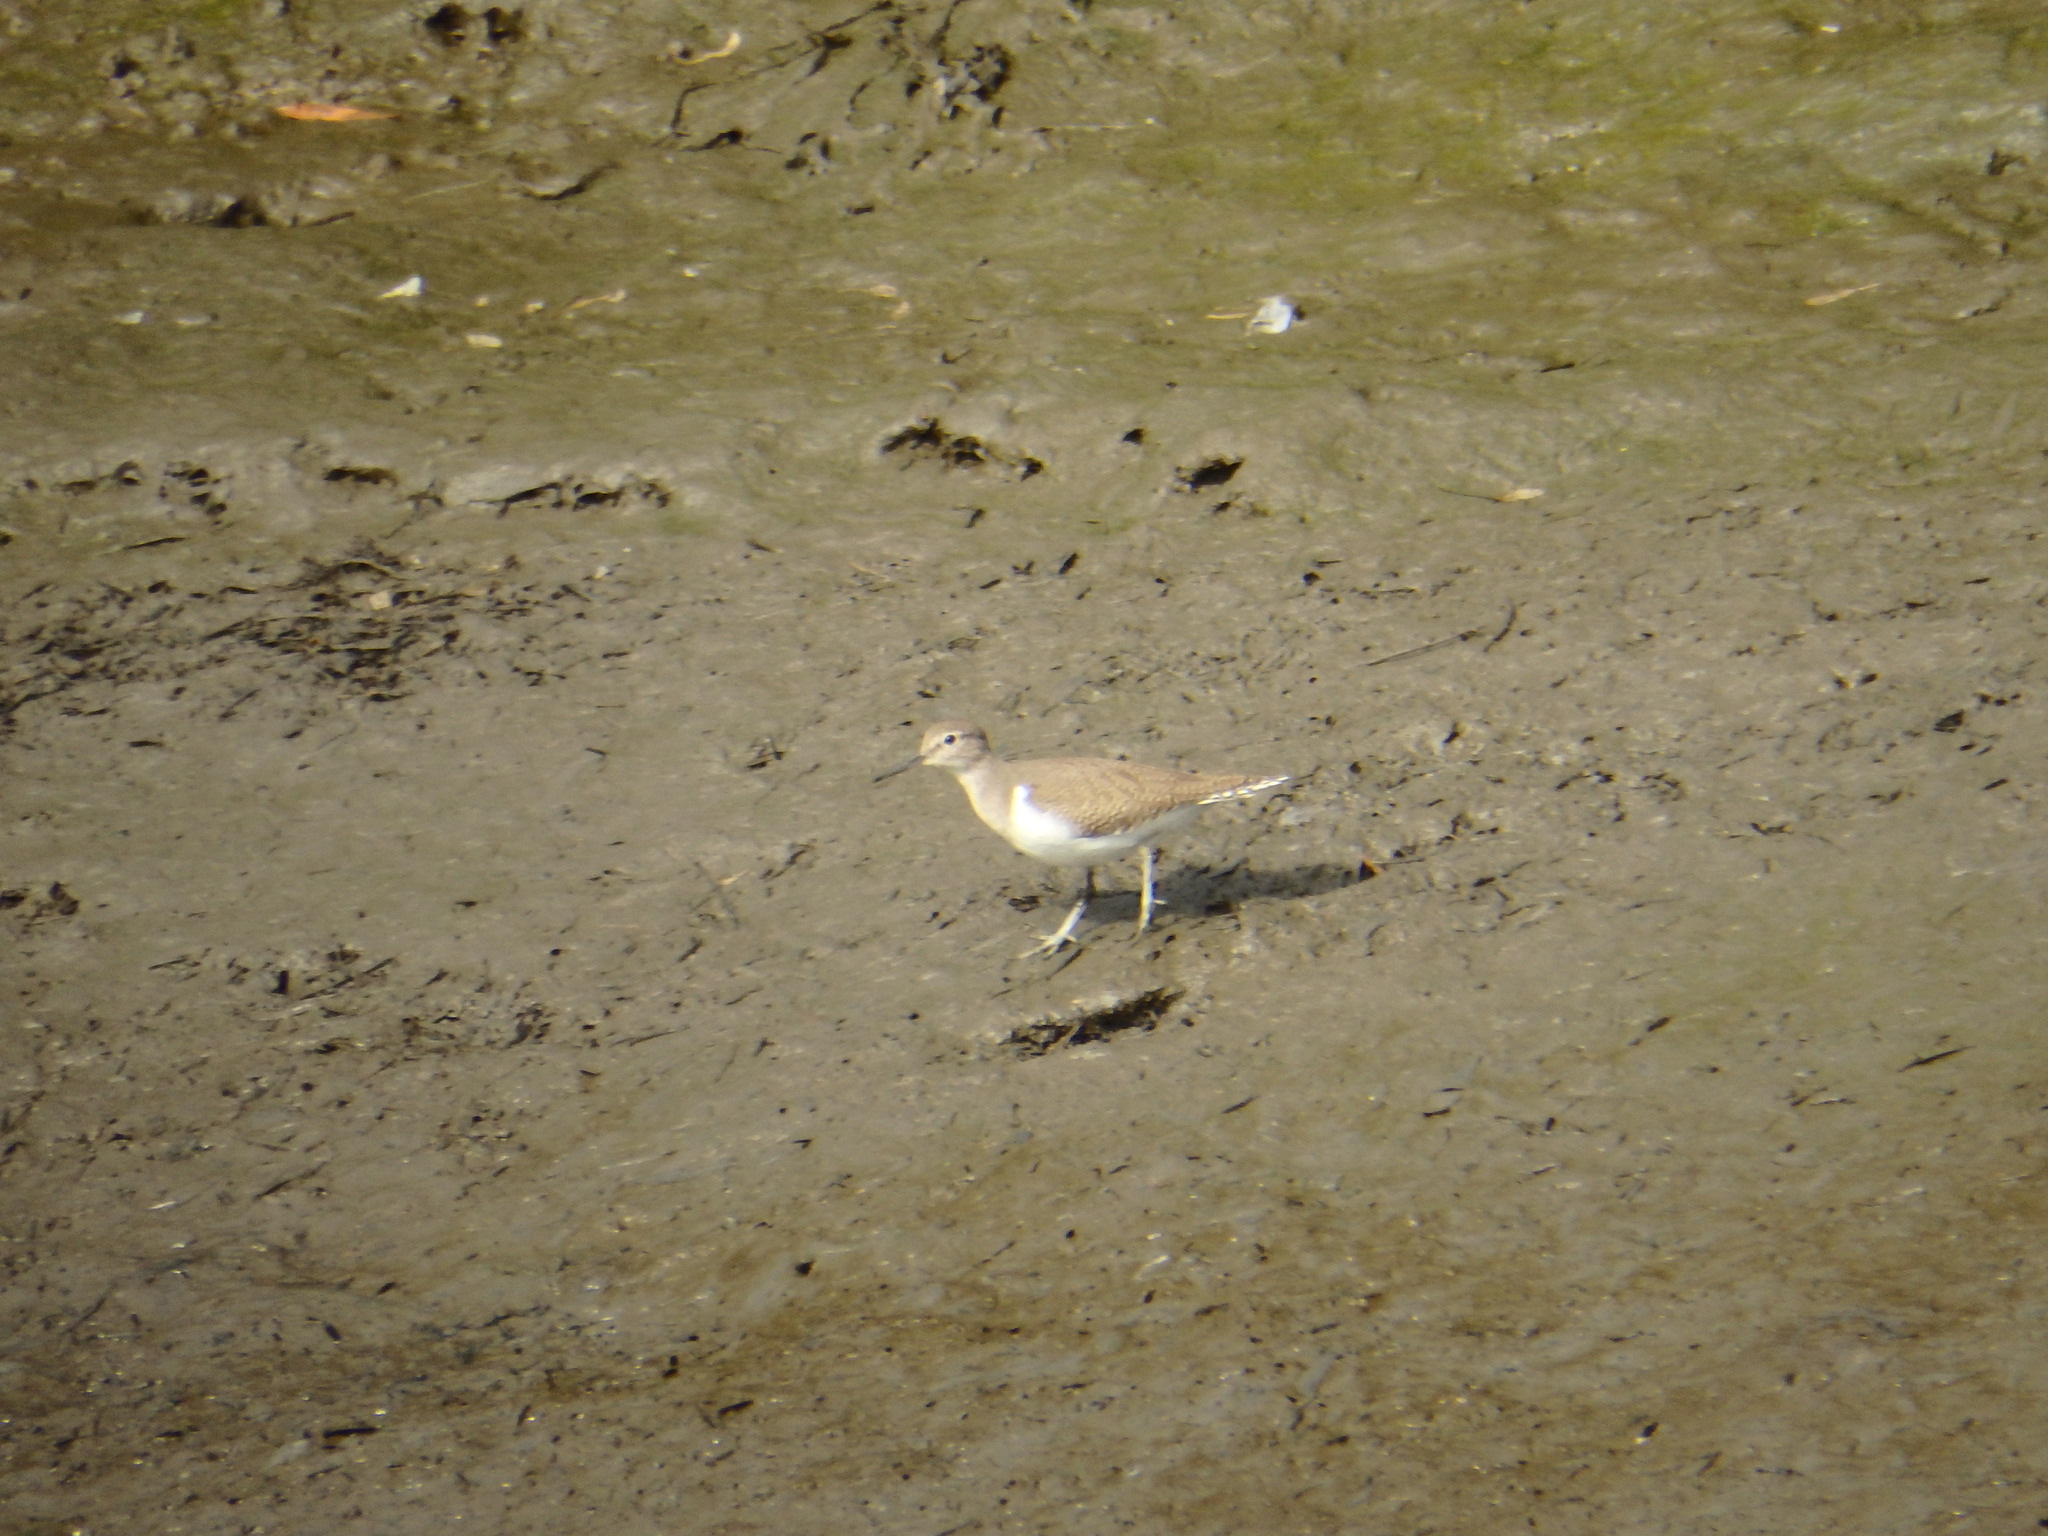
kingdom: Animalia
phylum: Chordata
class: Aves
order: Charadriiformes
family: Scolopacidae
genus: Actitis
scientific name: Actitis hypoleucos
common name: Common sandpiper
